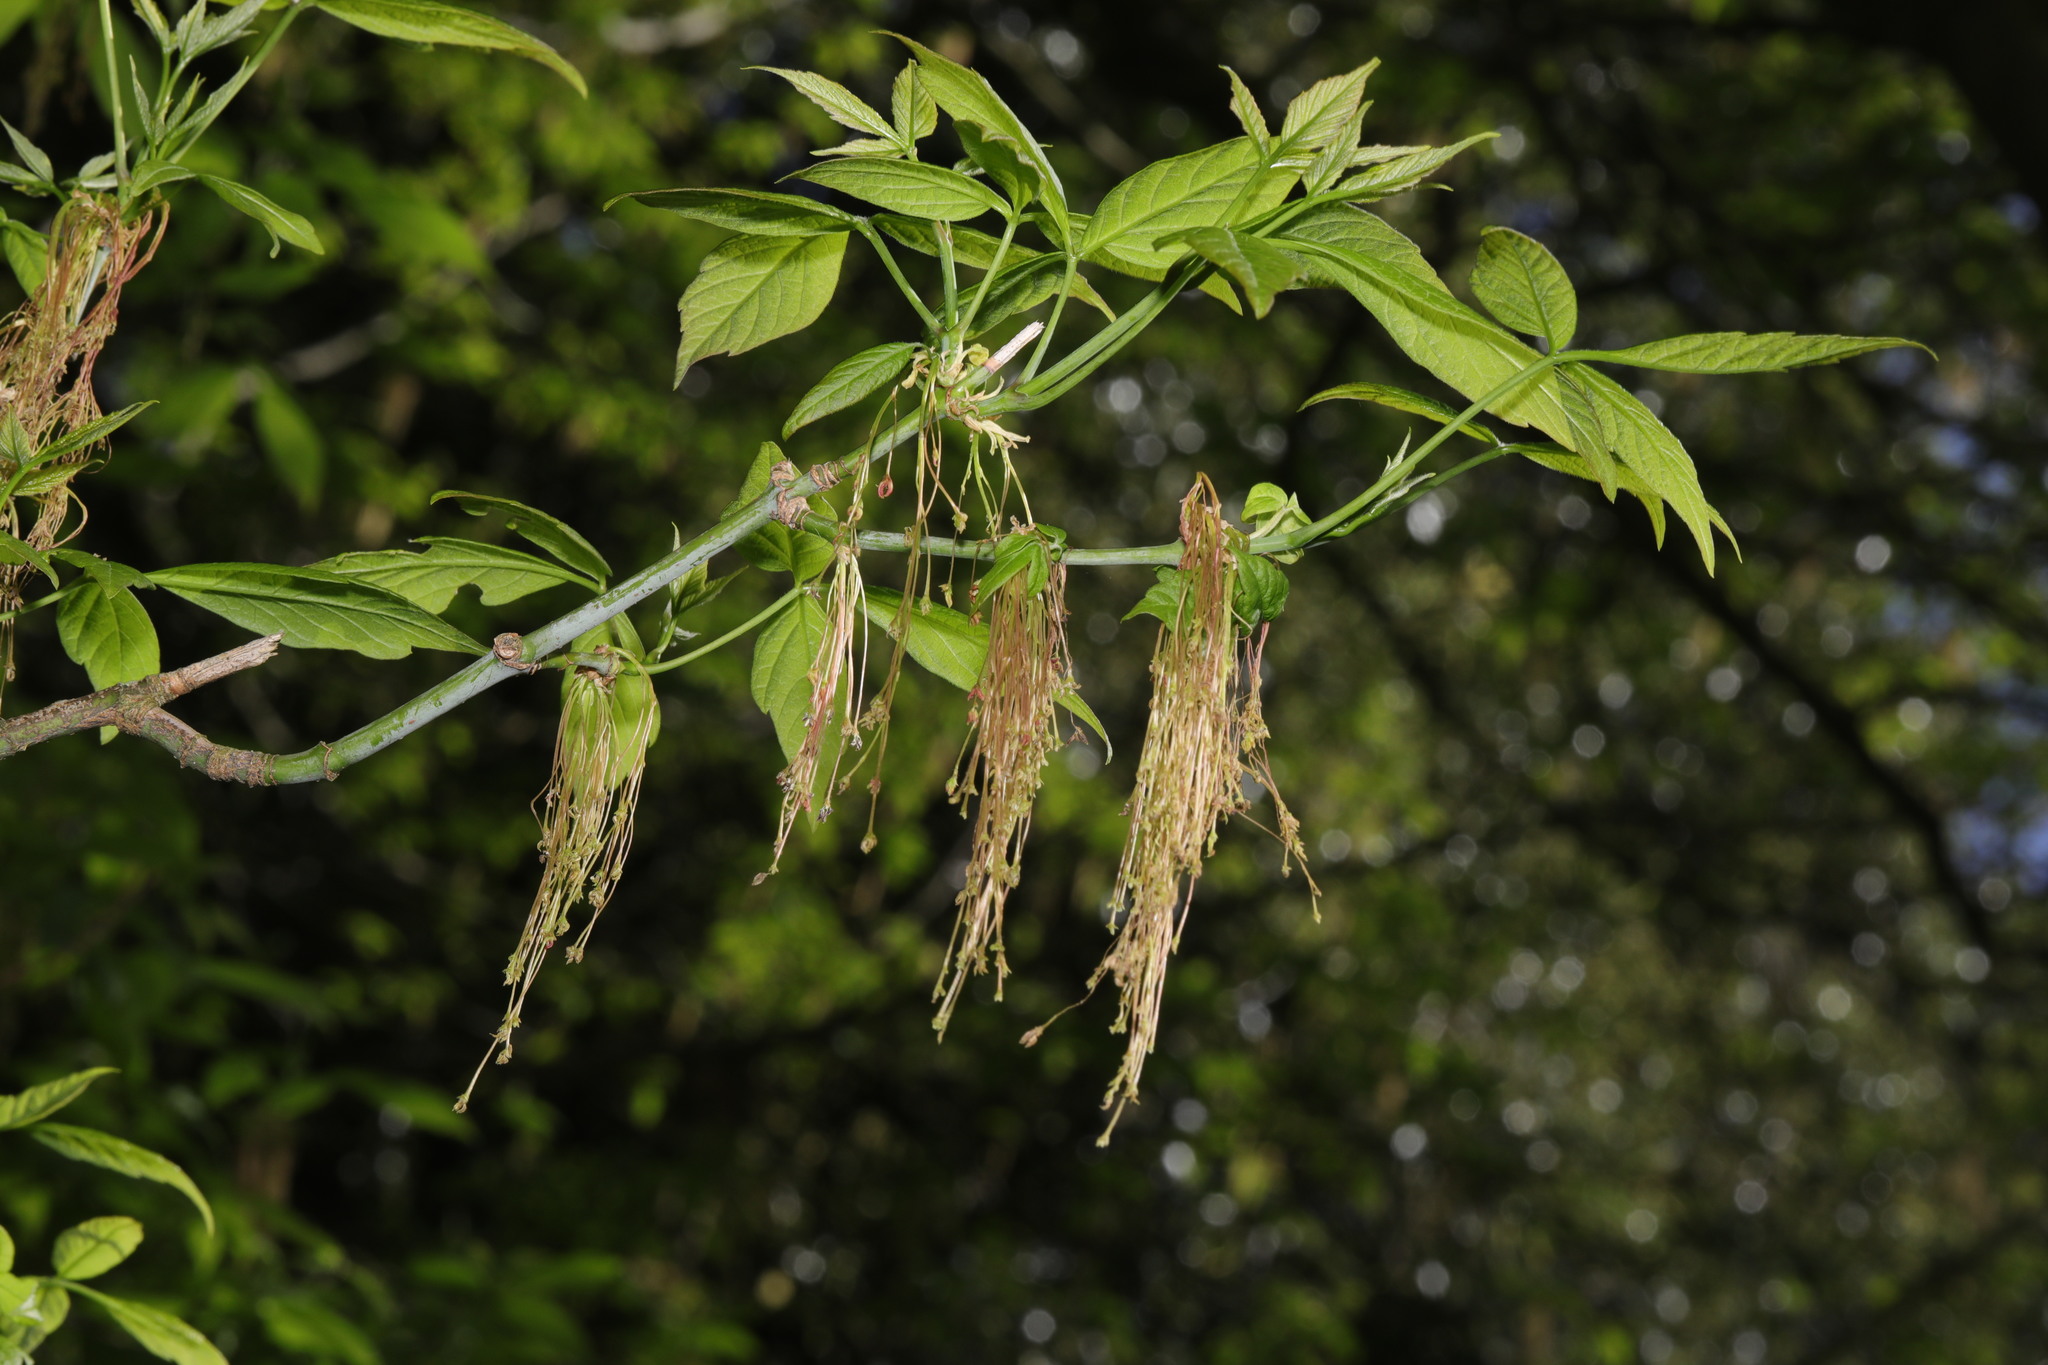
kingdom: Plantae
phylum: Tracheophyta
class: Magnoliopsida
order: Sapindales
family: Sapindaceae
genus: Acer
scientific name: Acer negundo
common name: Ashleaf maple
